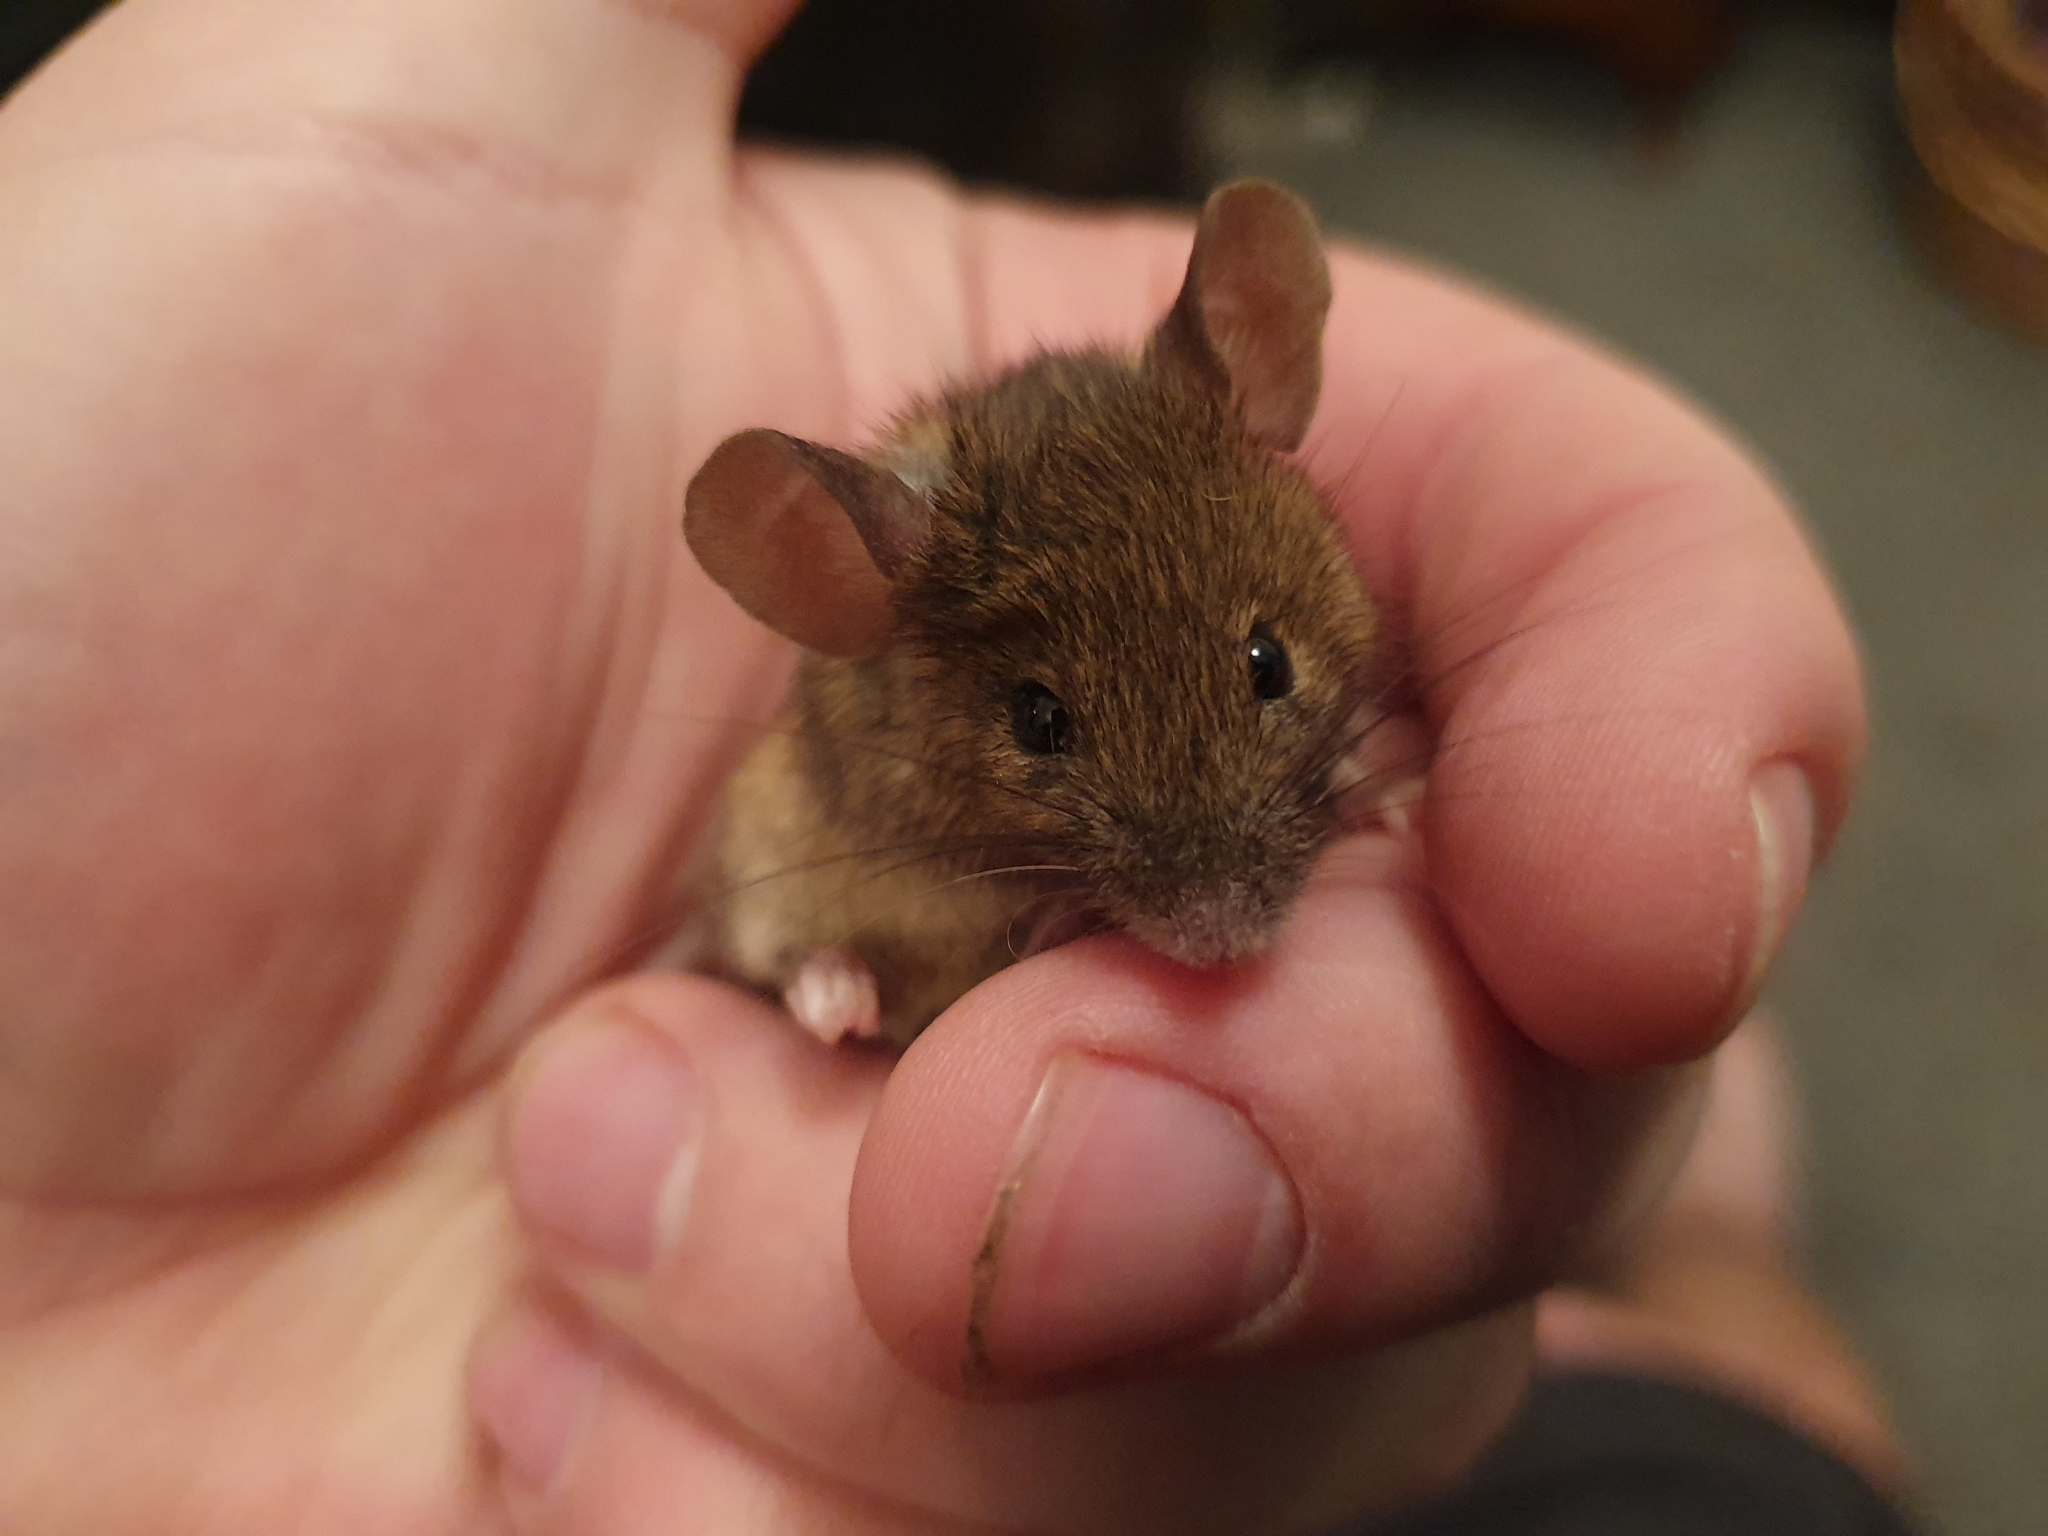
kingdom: Animalia
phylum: Chordata
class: Mammalia
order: Rodentia
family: Muridae
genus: Mus
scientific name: Mus musculus
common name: House mouse
